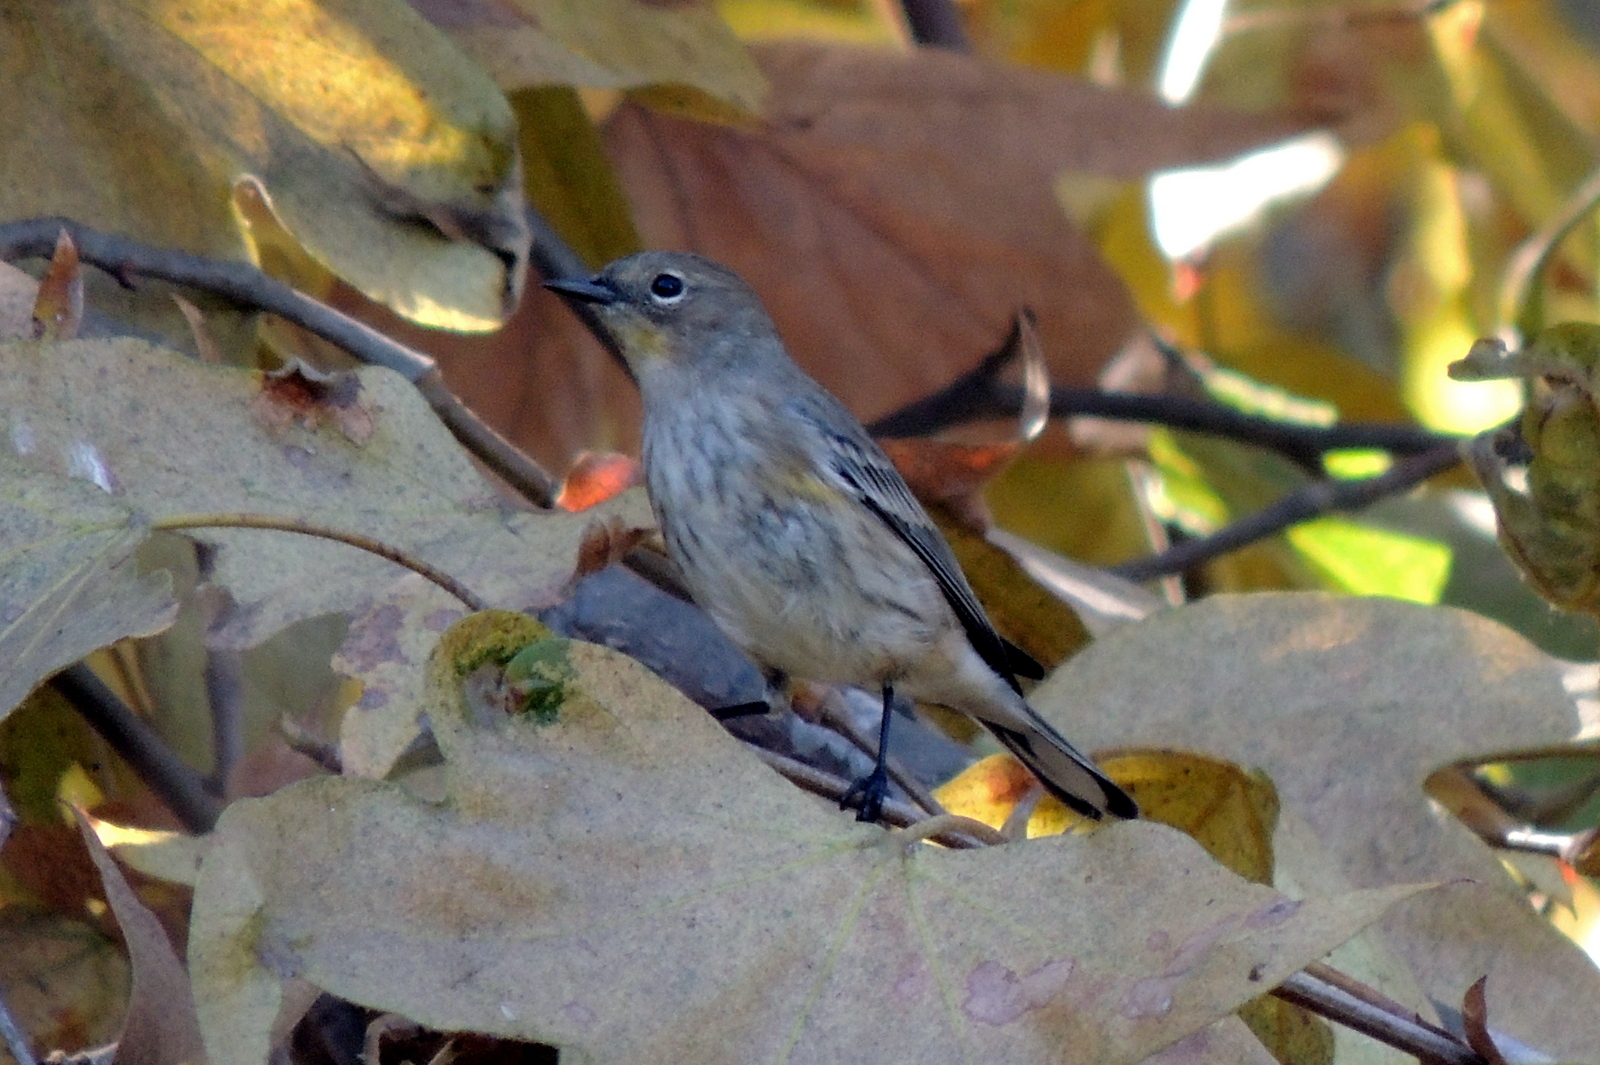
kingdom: Animalia
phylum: Chordata
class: Aves
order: Passeriformes
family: Parulidae
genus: Setophaga
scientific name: Setophaga coronata
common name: Myrtle warbler
